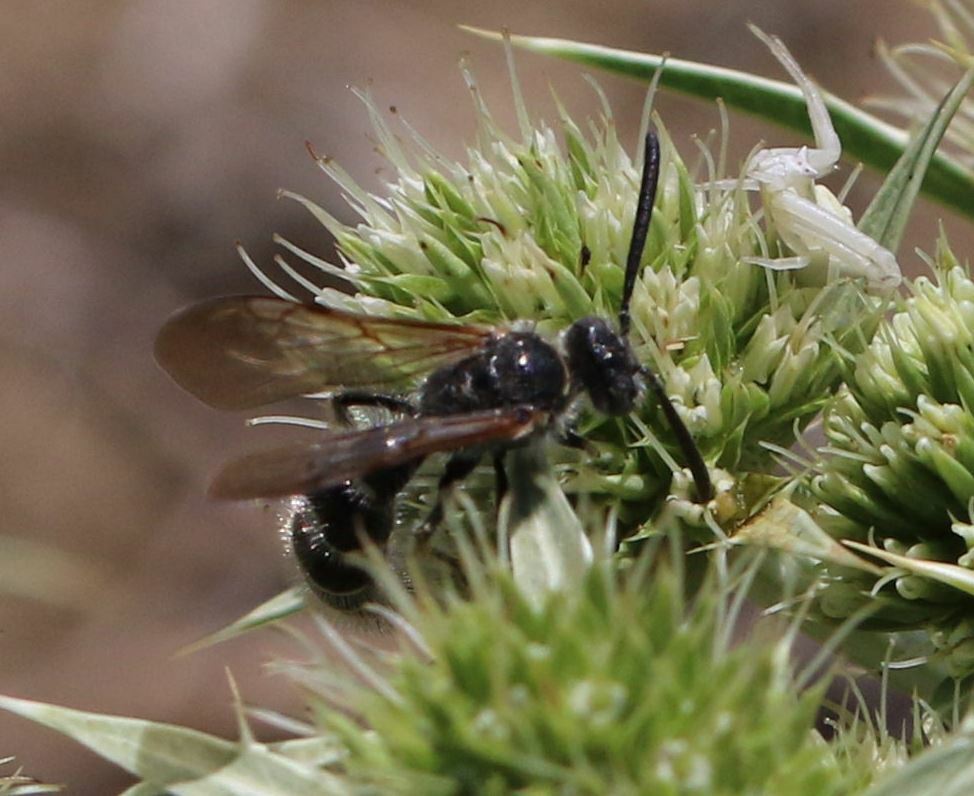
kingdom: Animalia
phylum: Arthropoda
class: Insecta
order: Hymenoptera
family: Scoliidae
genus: Colpa
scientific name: Colpa quinquecincta
